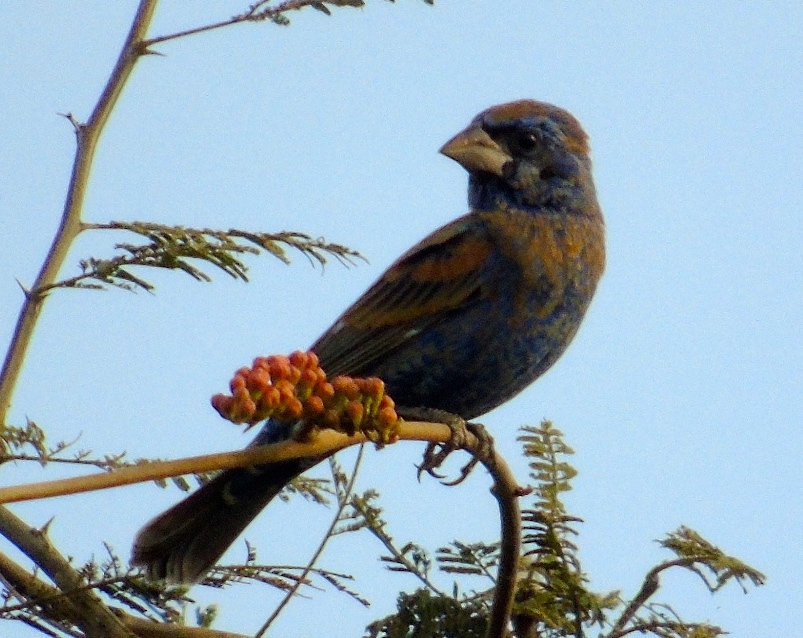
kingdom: Animalia
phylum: Chordata
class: Aves
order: Passeriformes
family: Cardinalidae
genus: Passerina
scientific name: Passerina caerulea
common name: Blue grosbeak
